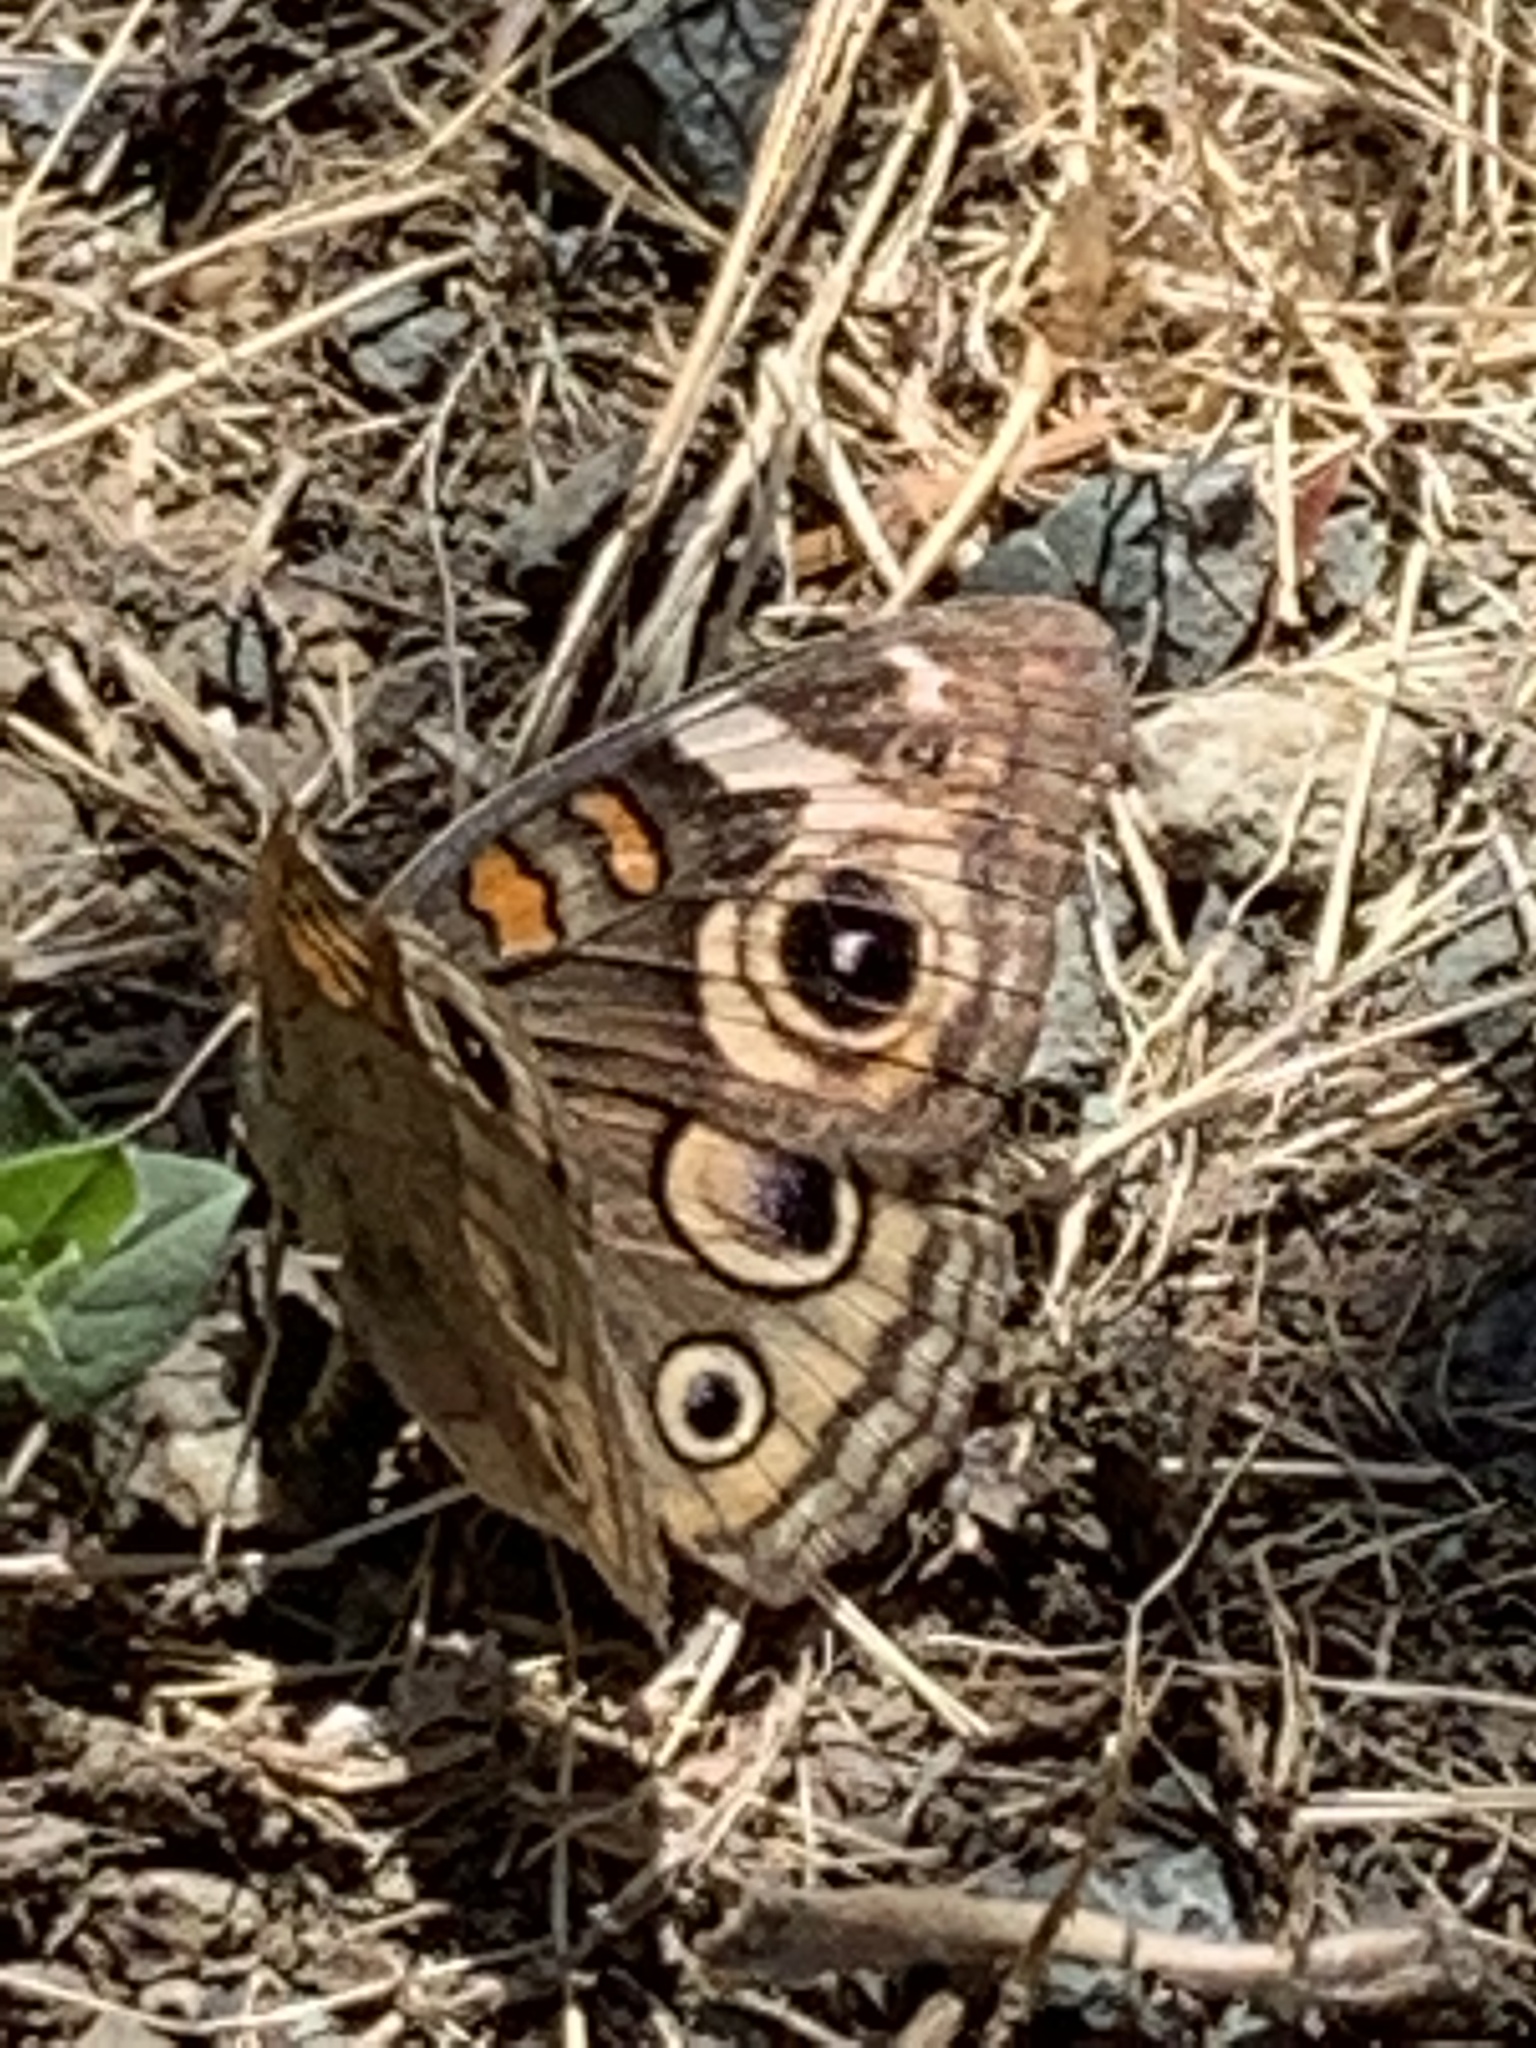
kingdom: Animalia
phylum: Arthropoda
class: Insecta
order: Lepidoptera
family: Nymphalidae
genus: Junonia
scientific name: Junonia grisea
